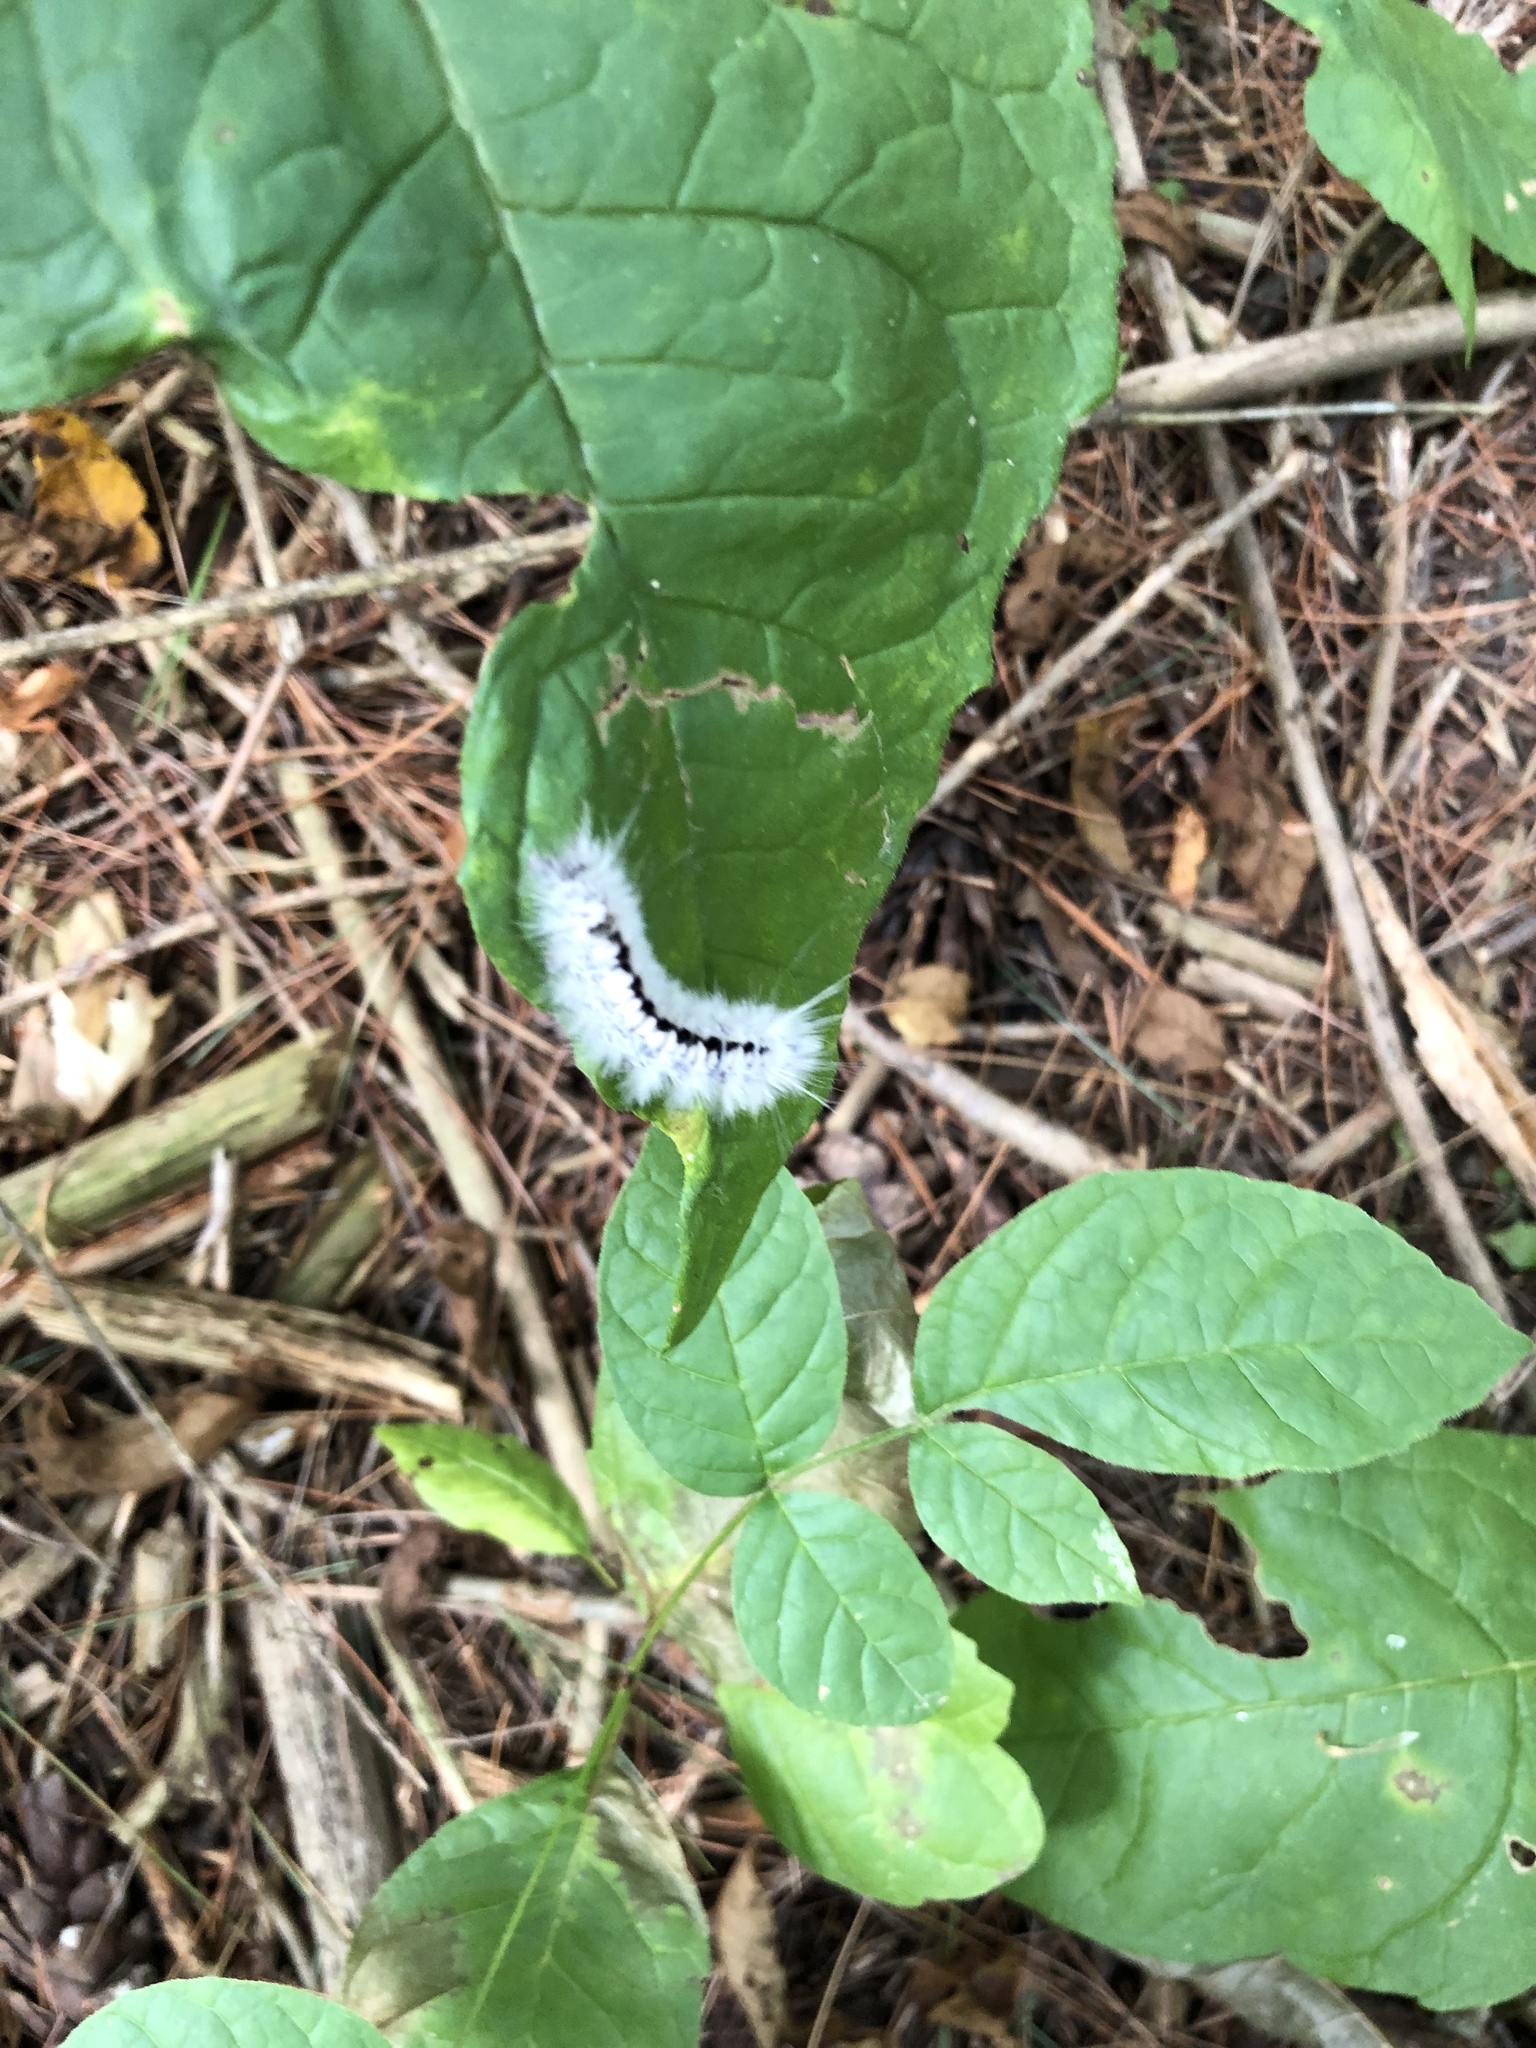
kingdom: Animalia
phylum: Arthropoda
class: Insecta
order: Lepidoptera
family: Erebidae
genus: Lophocampa
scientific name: Lophocampa caryae
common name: Hickory tussock moth
